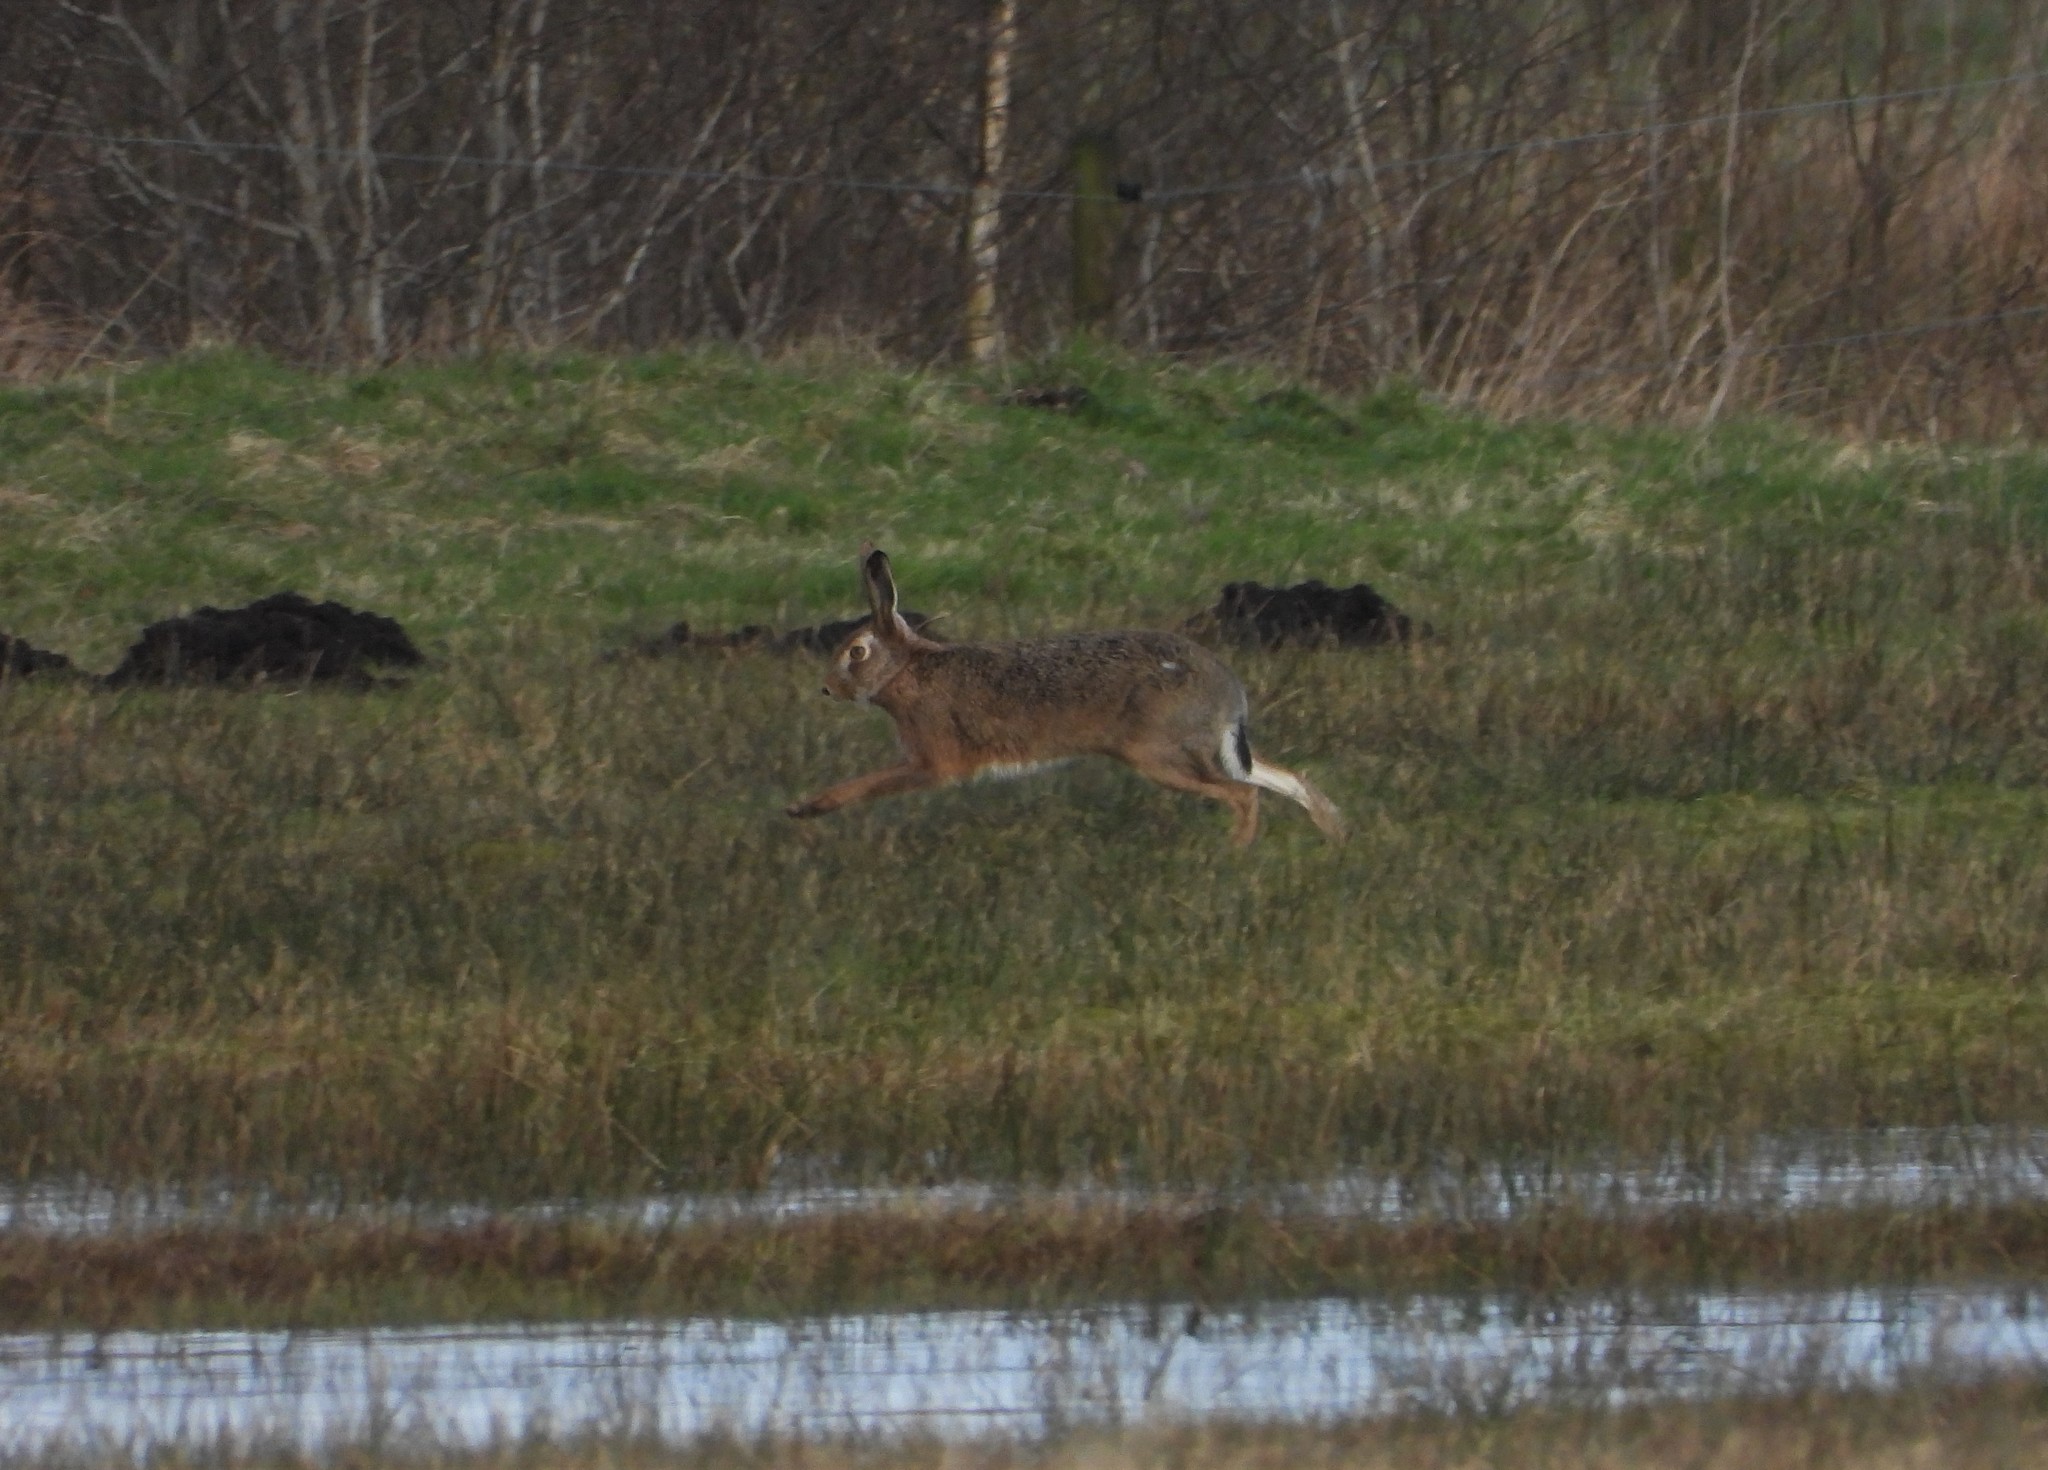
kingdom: Animalia
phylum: Chordata
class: Mammalia
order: Lagomorpha
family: Leporidae
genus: Lepus
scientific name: Lepus europaeus
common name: European hare
